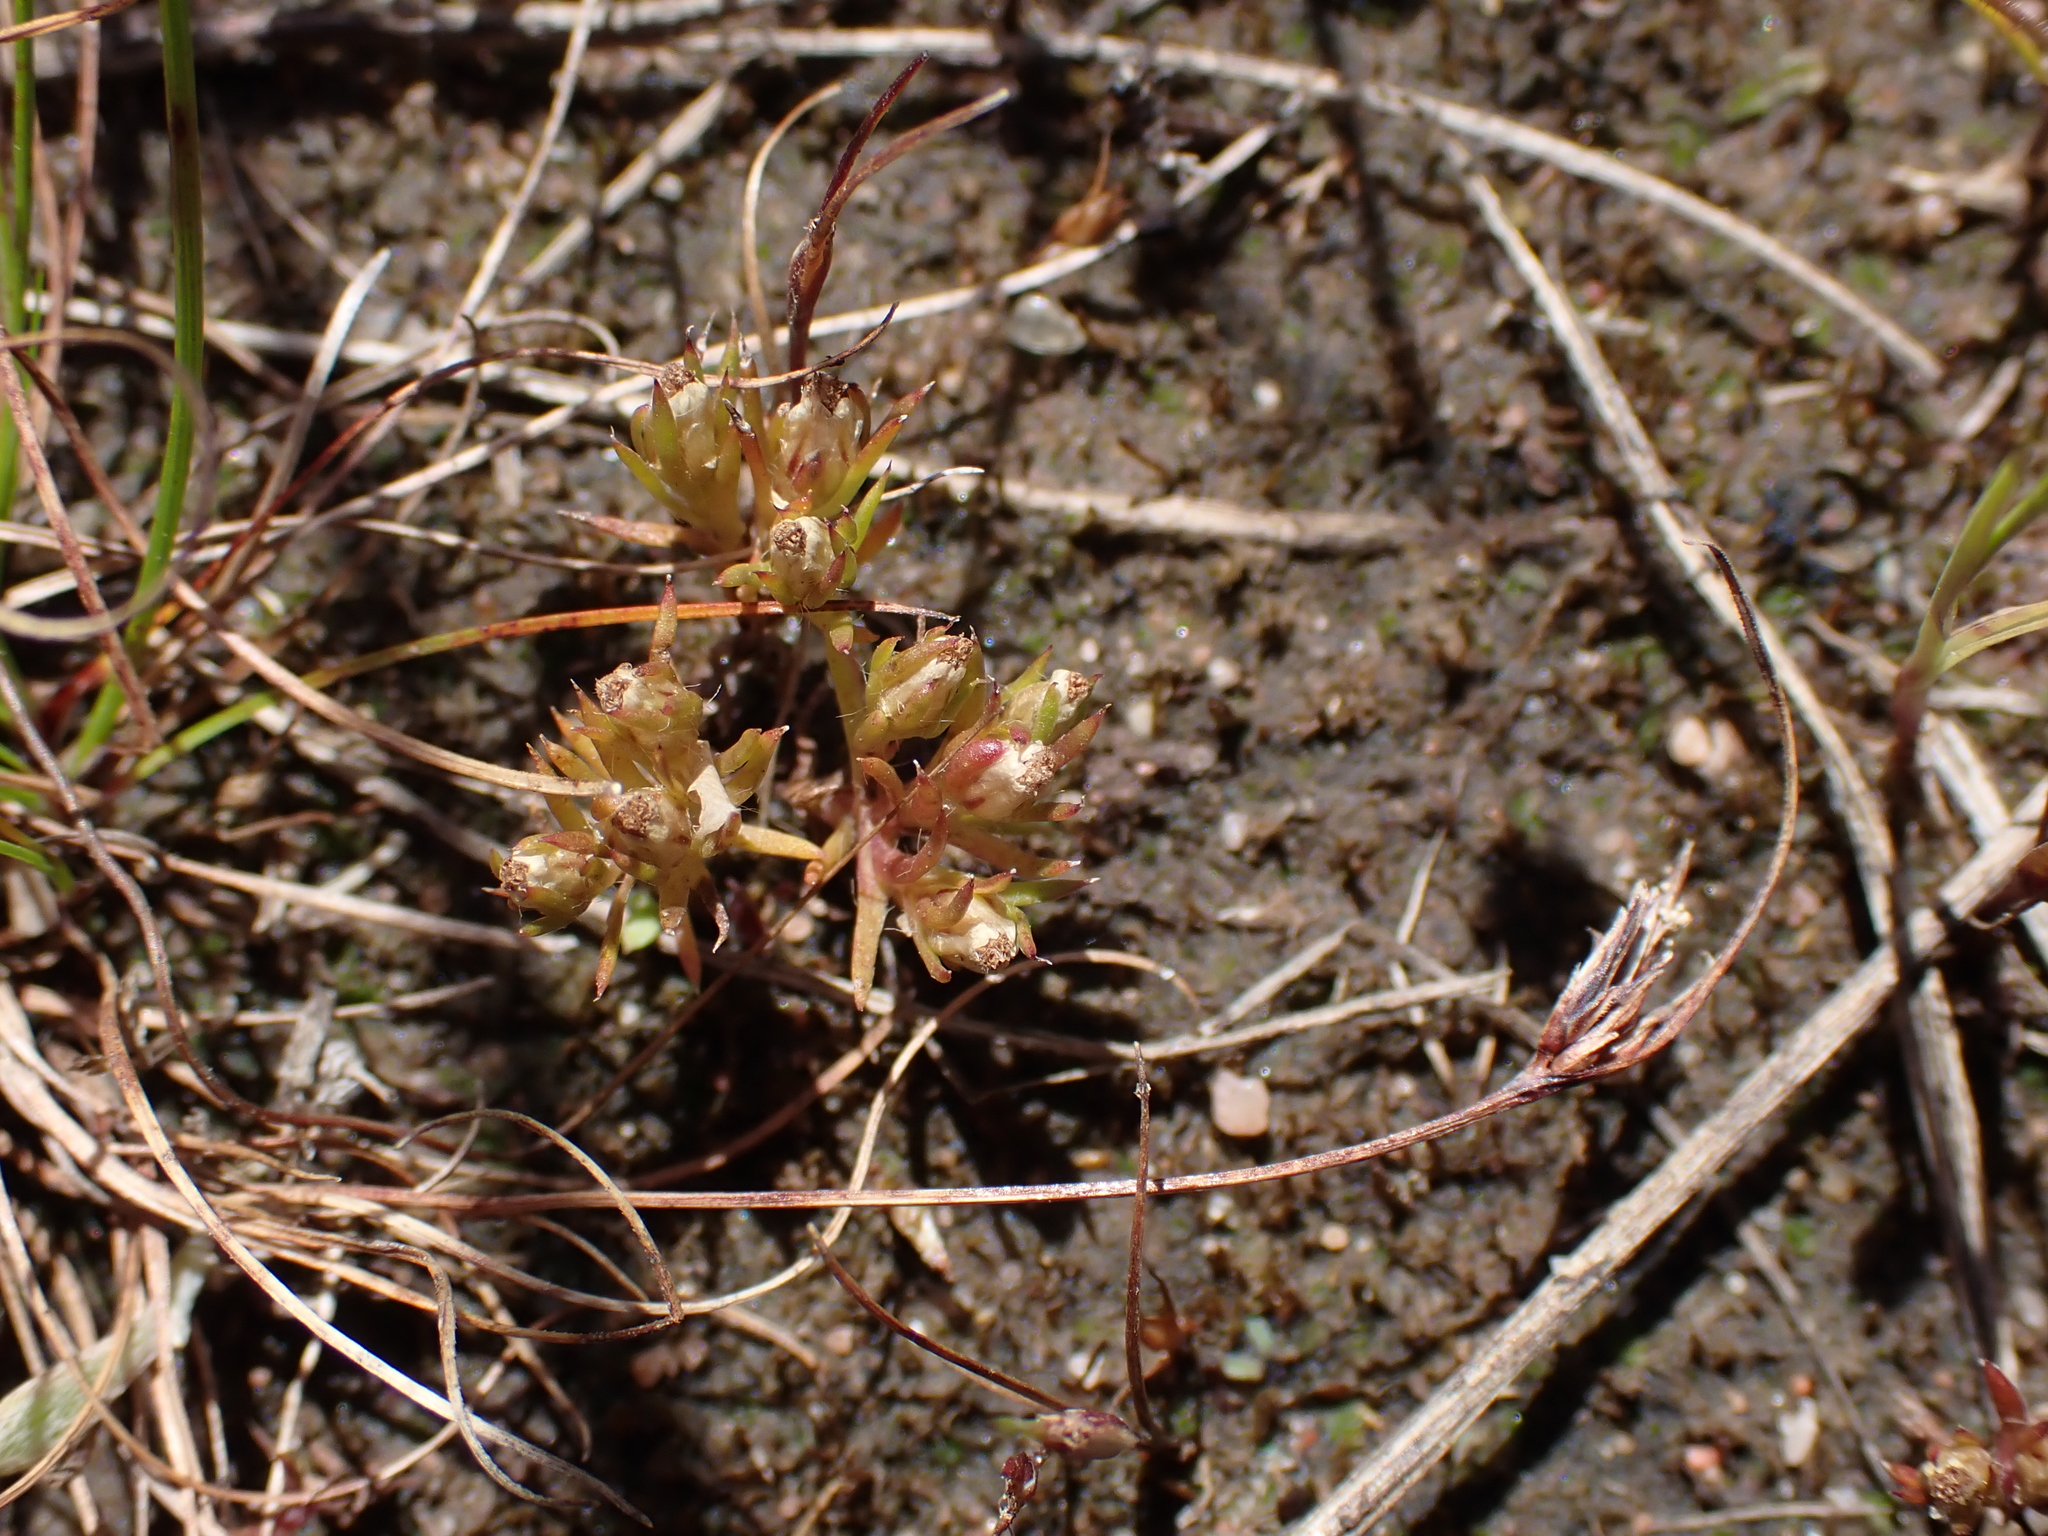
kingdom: Plantae
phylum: Tracheophyta
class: Magnoliopsida
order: Asterales
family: Asteraceae
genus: Hyalosperma
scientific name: Hyalosperma demissum
